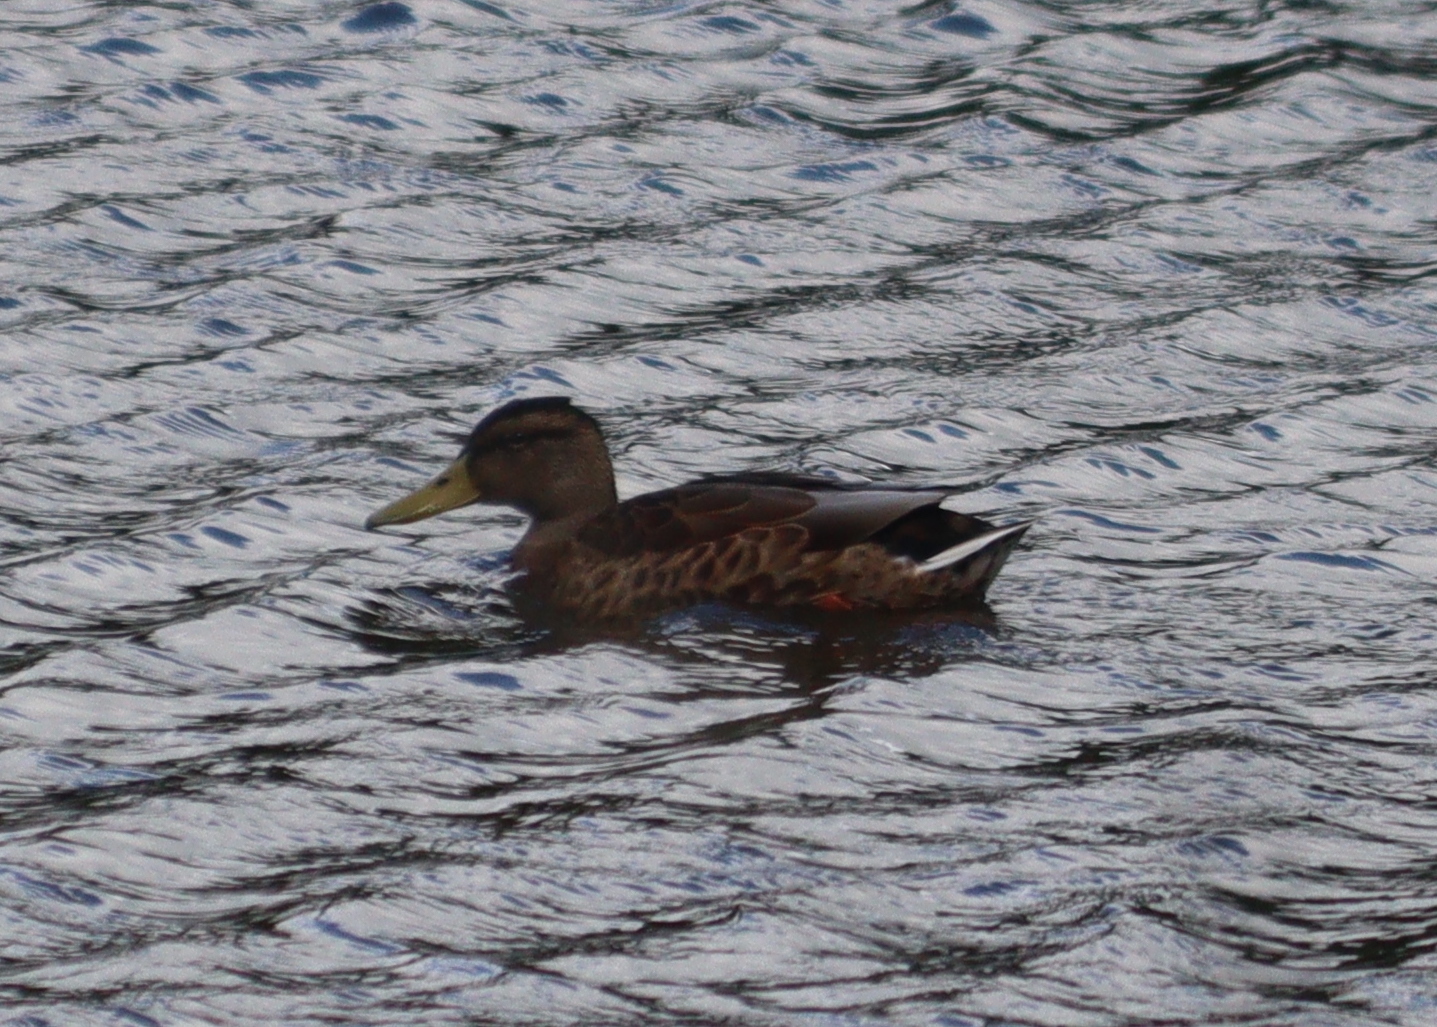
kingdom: Animalia
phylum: Chordata
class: Aves
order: Anseriformes
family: Anatidae
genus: Anas
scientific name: Anas platyrhynchos
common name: Mallard
